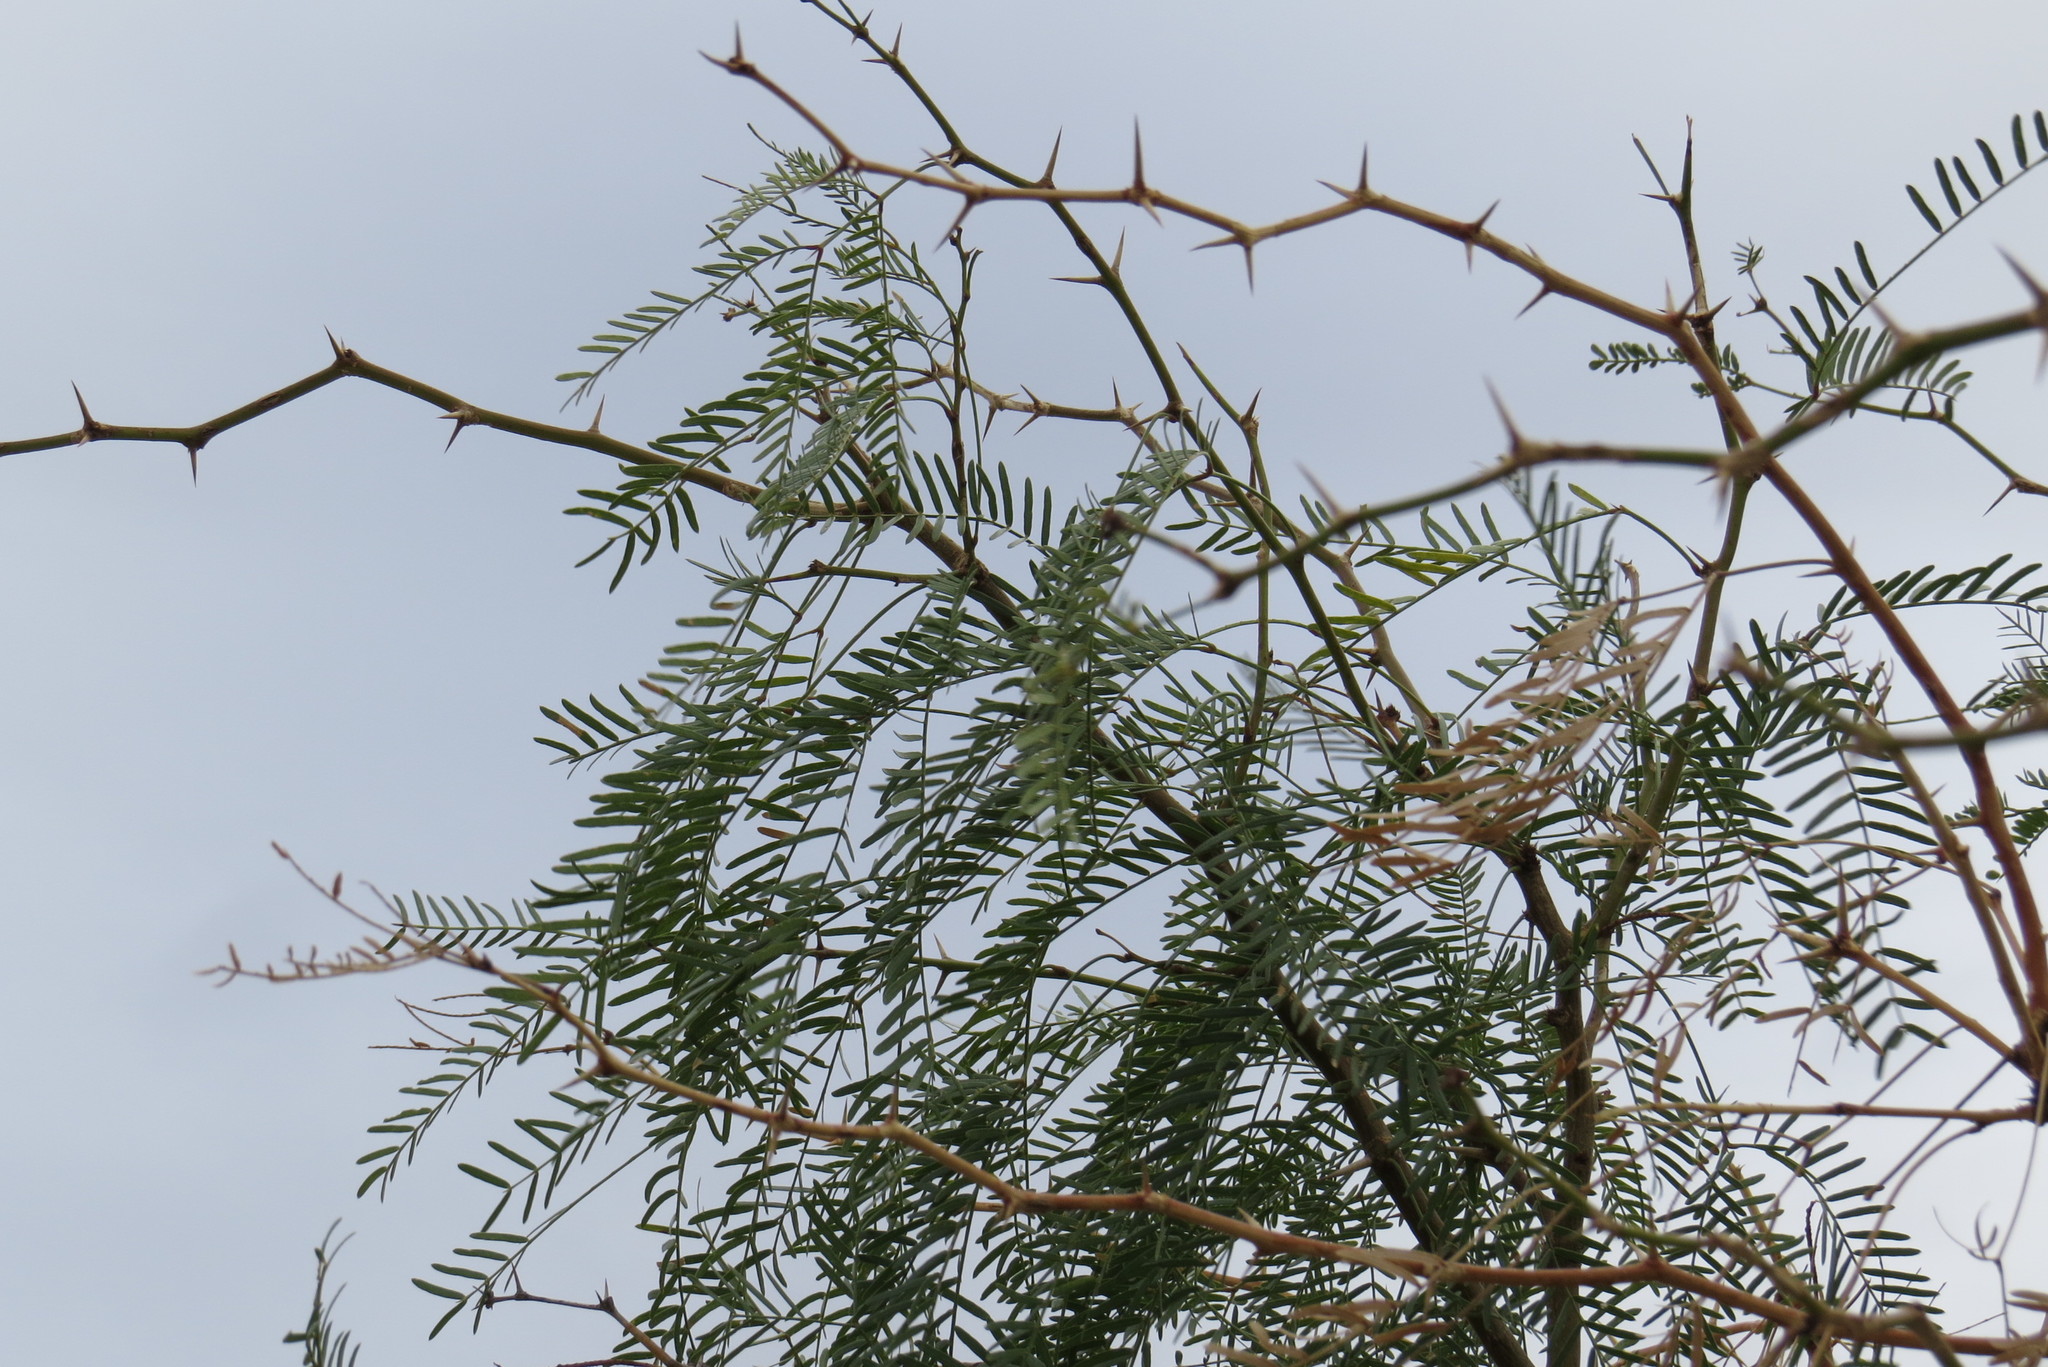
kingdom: Plantae
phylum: Tracheophyta
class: Magnoliopsida
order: Fabales
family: Fabaceae
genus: Prosopis
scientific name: Prosopis glandulosa
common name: Honey mesquite
